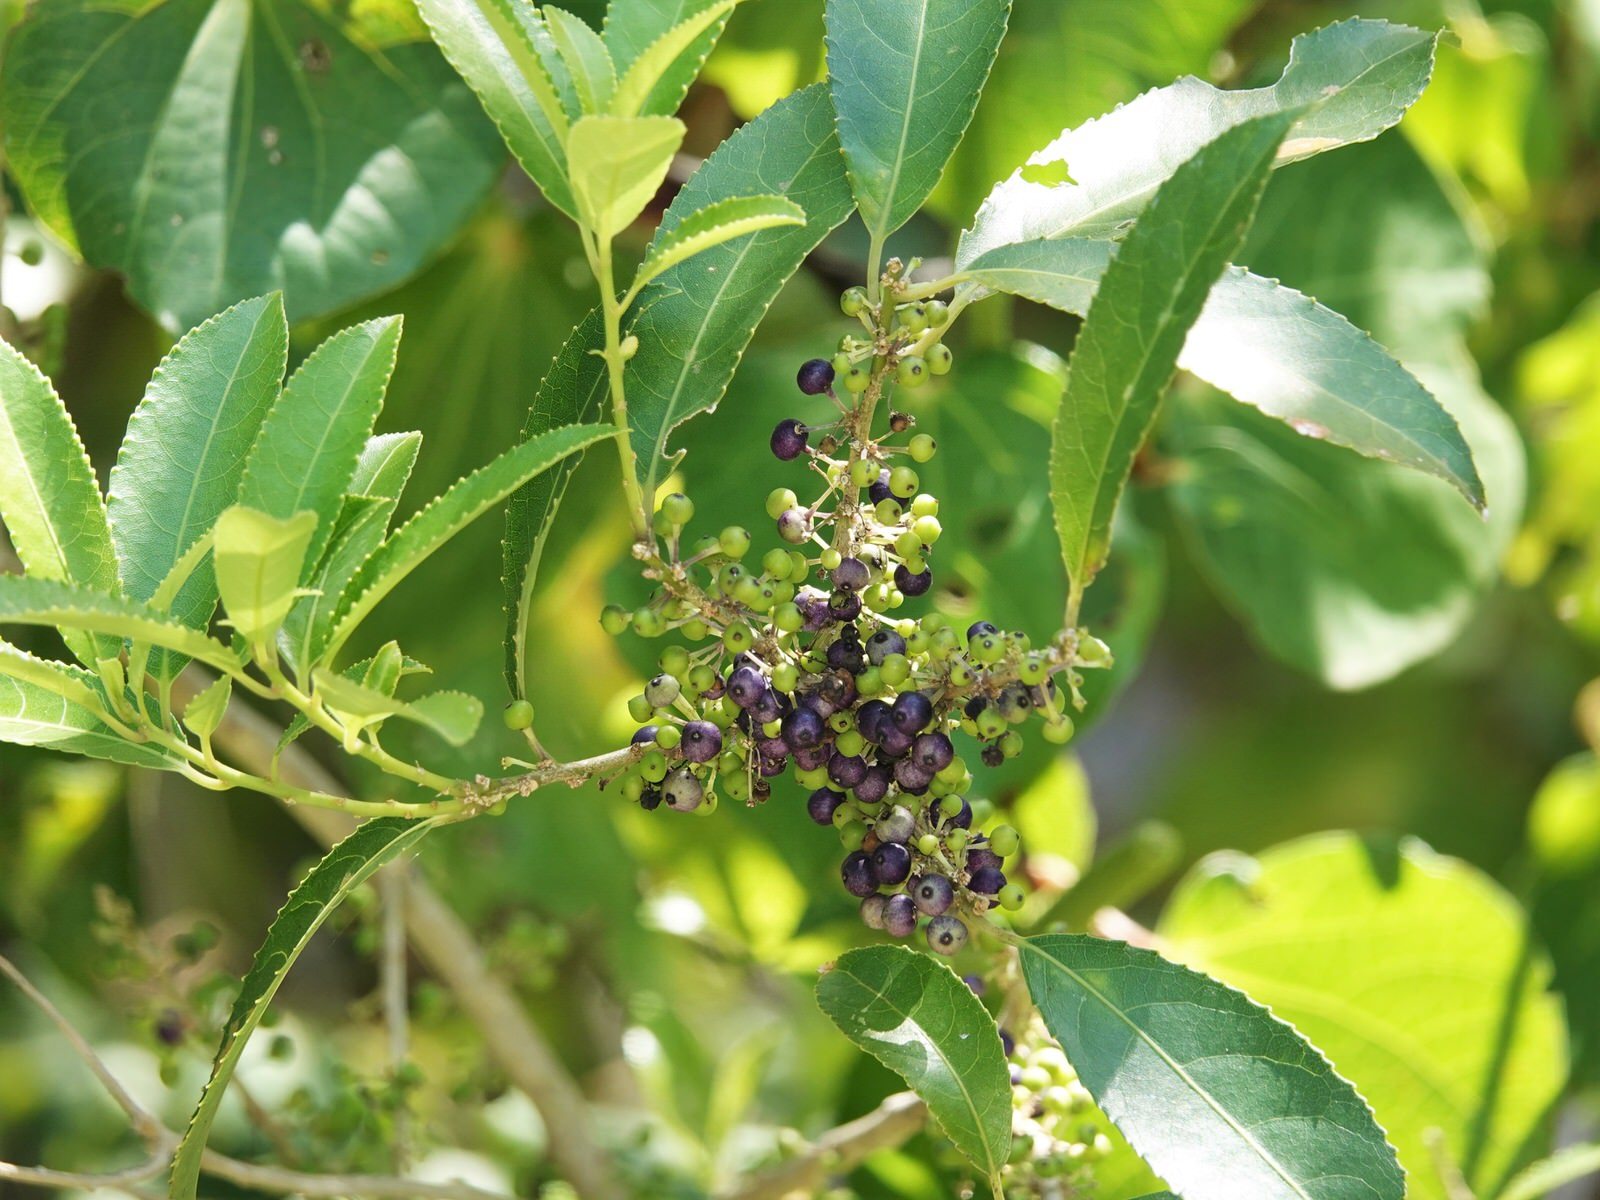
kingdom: Plantae
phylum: Tracheophyta
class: Magnoliopsida
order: Malpighiales
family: Violaceae
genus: Melicytus
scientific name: Melicytus ramiflorus
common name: Mahoe
